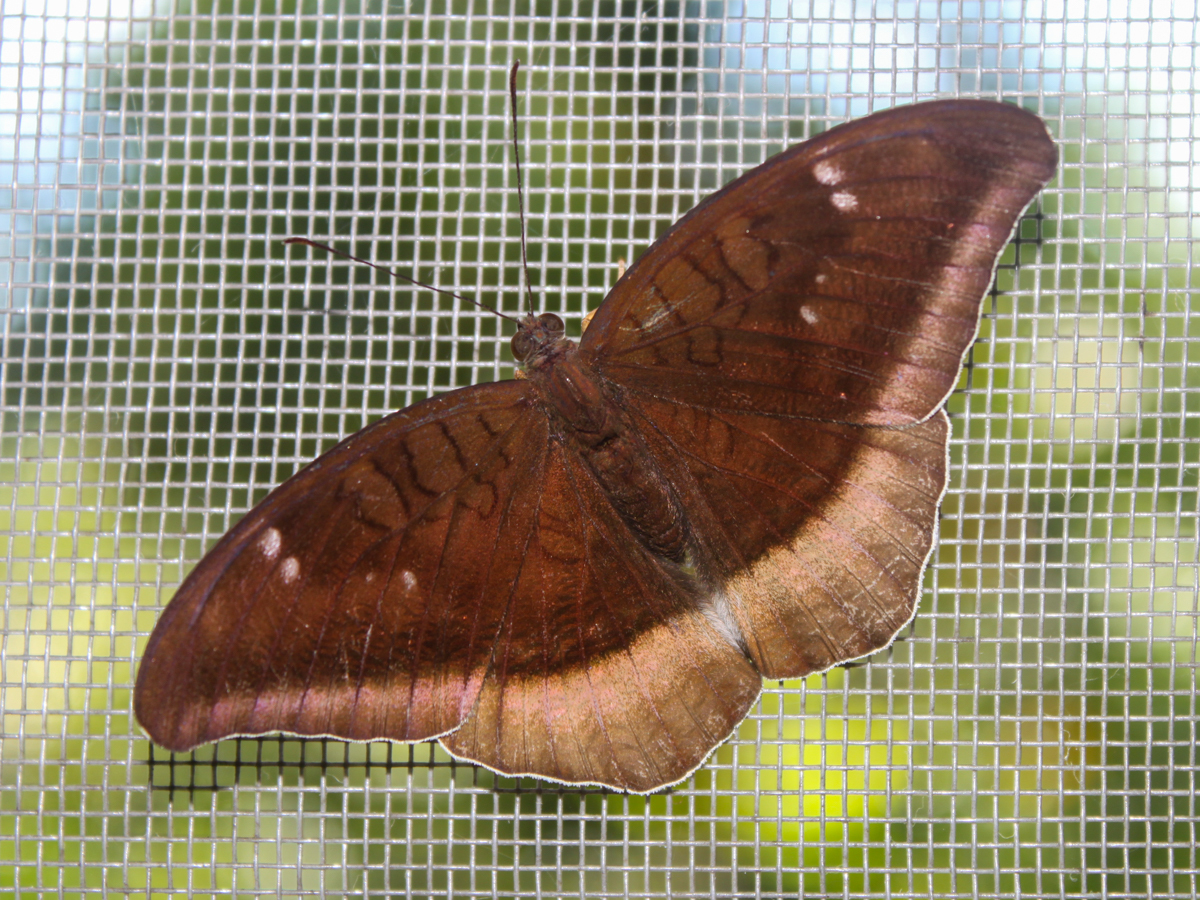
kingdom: Animalia
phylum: Arthropoda
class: Insecta
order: Lepidoptera
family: Nymphalidae
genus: Tanaecia
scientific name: Tanaecia lepidea
